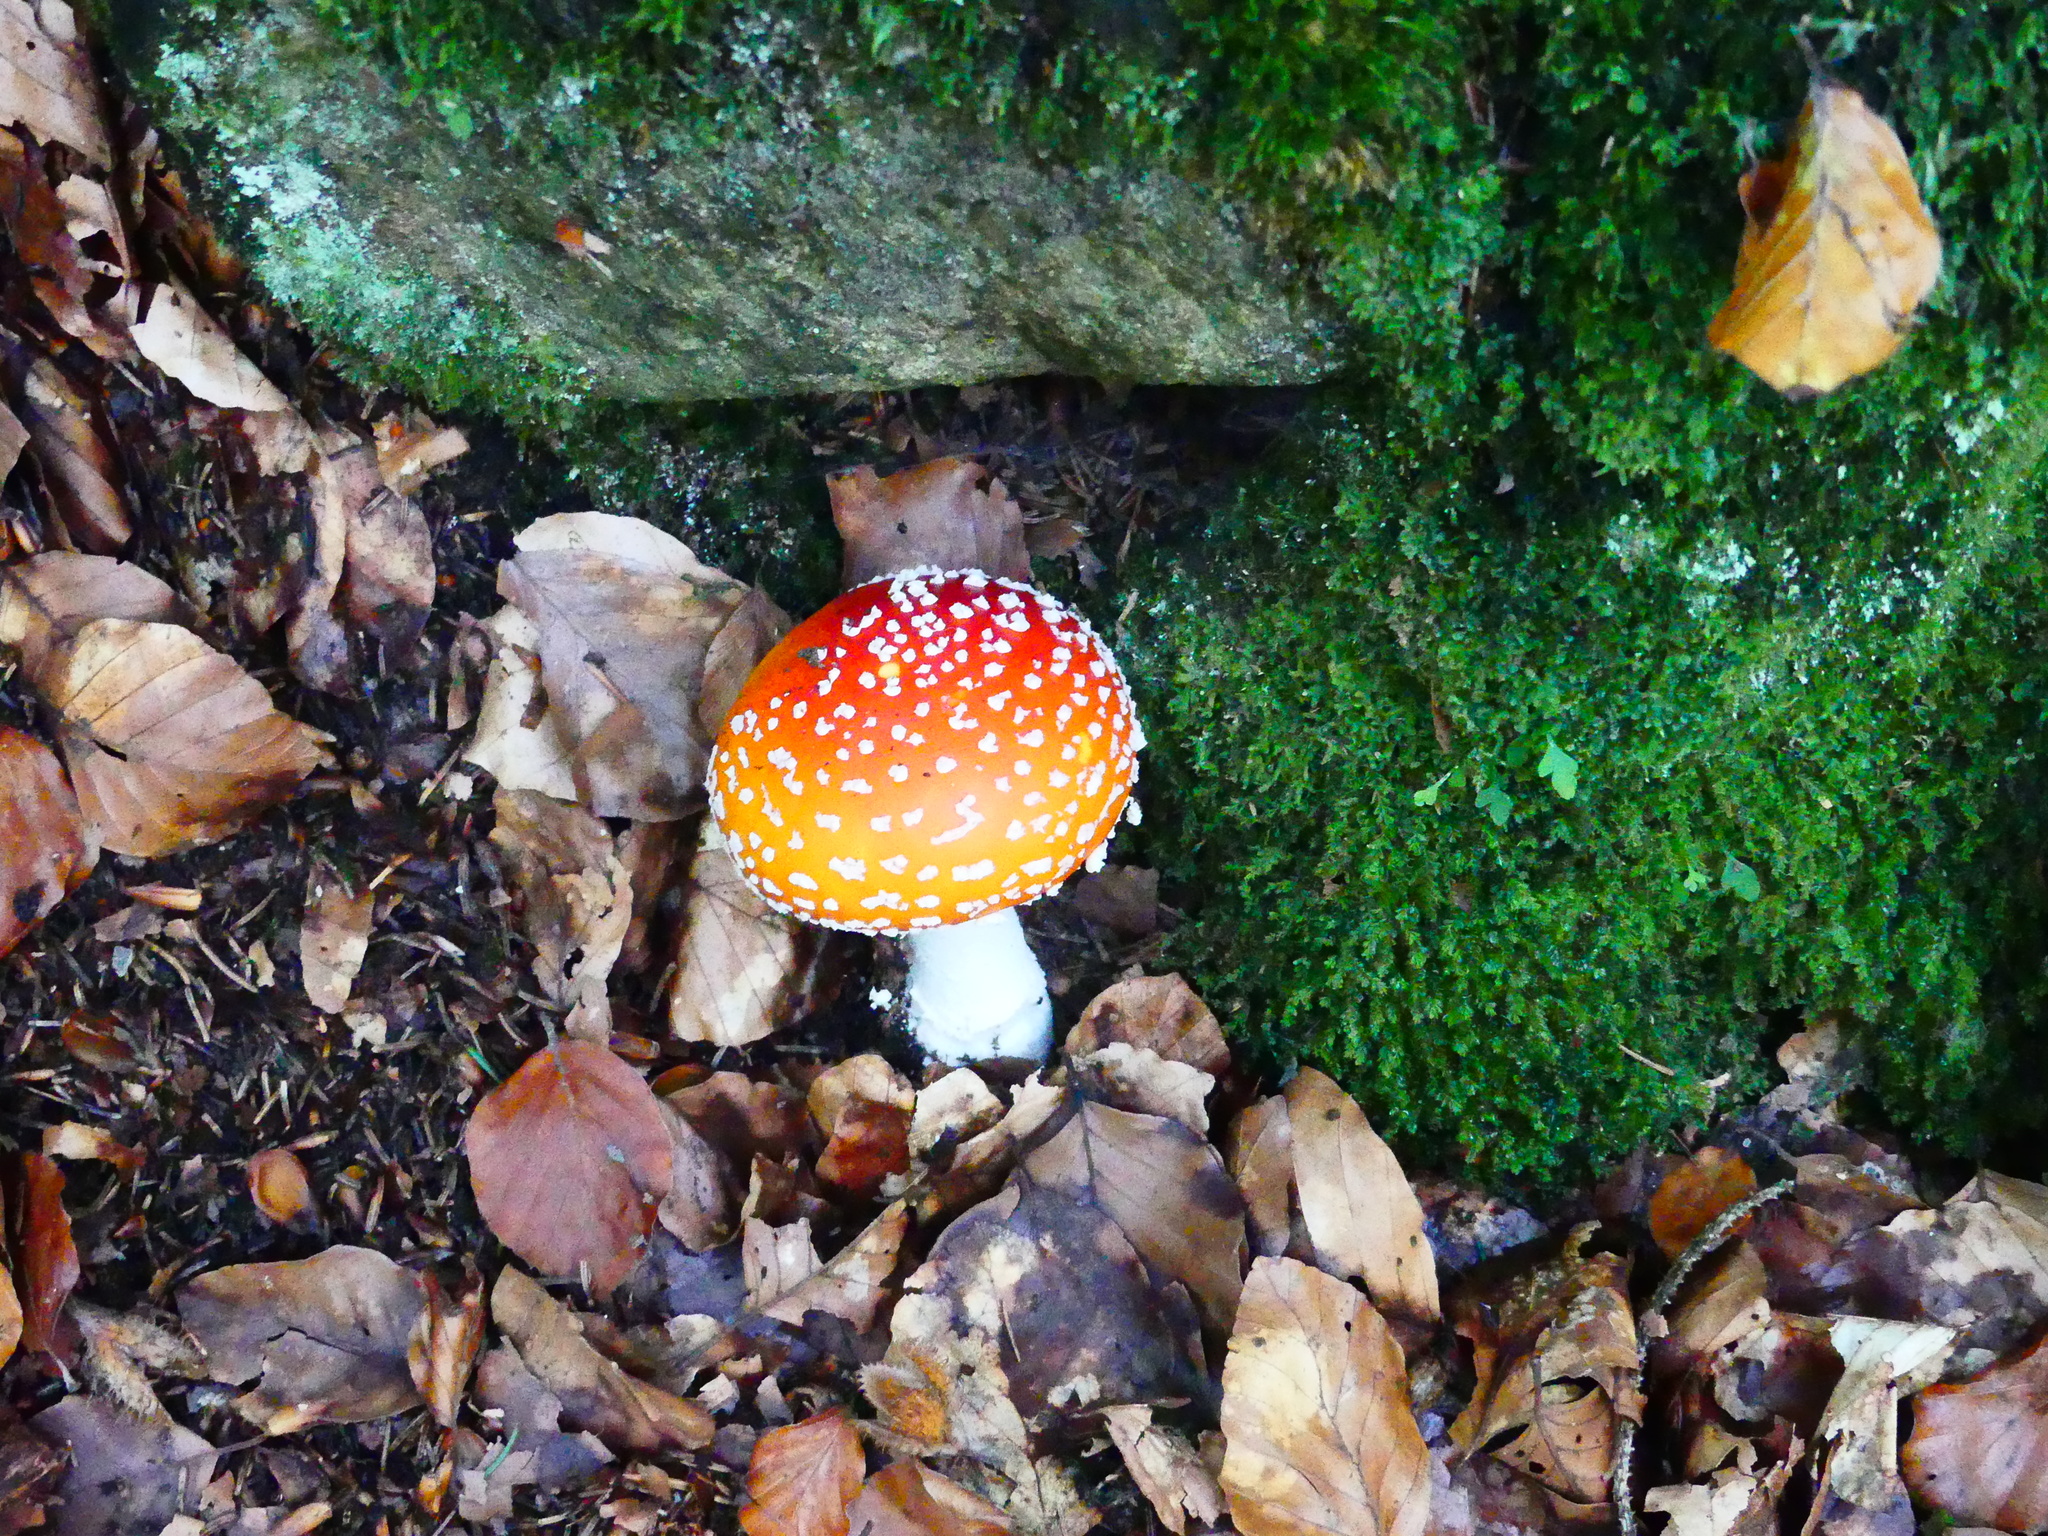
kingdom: Fungi
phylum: Basidiomycota
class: Agaricomycetes
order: Agaricales
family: Amanitaceae
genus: Amanita
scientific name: Amanita muscaria
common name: Fly agaric
